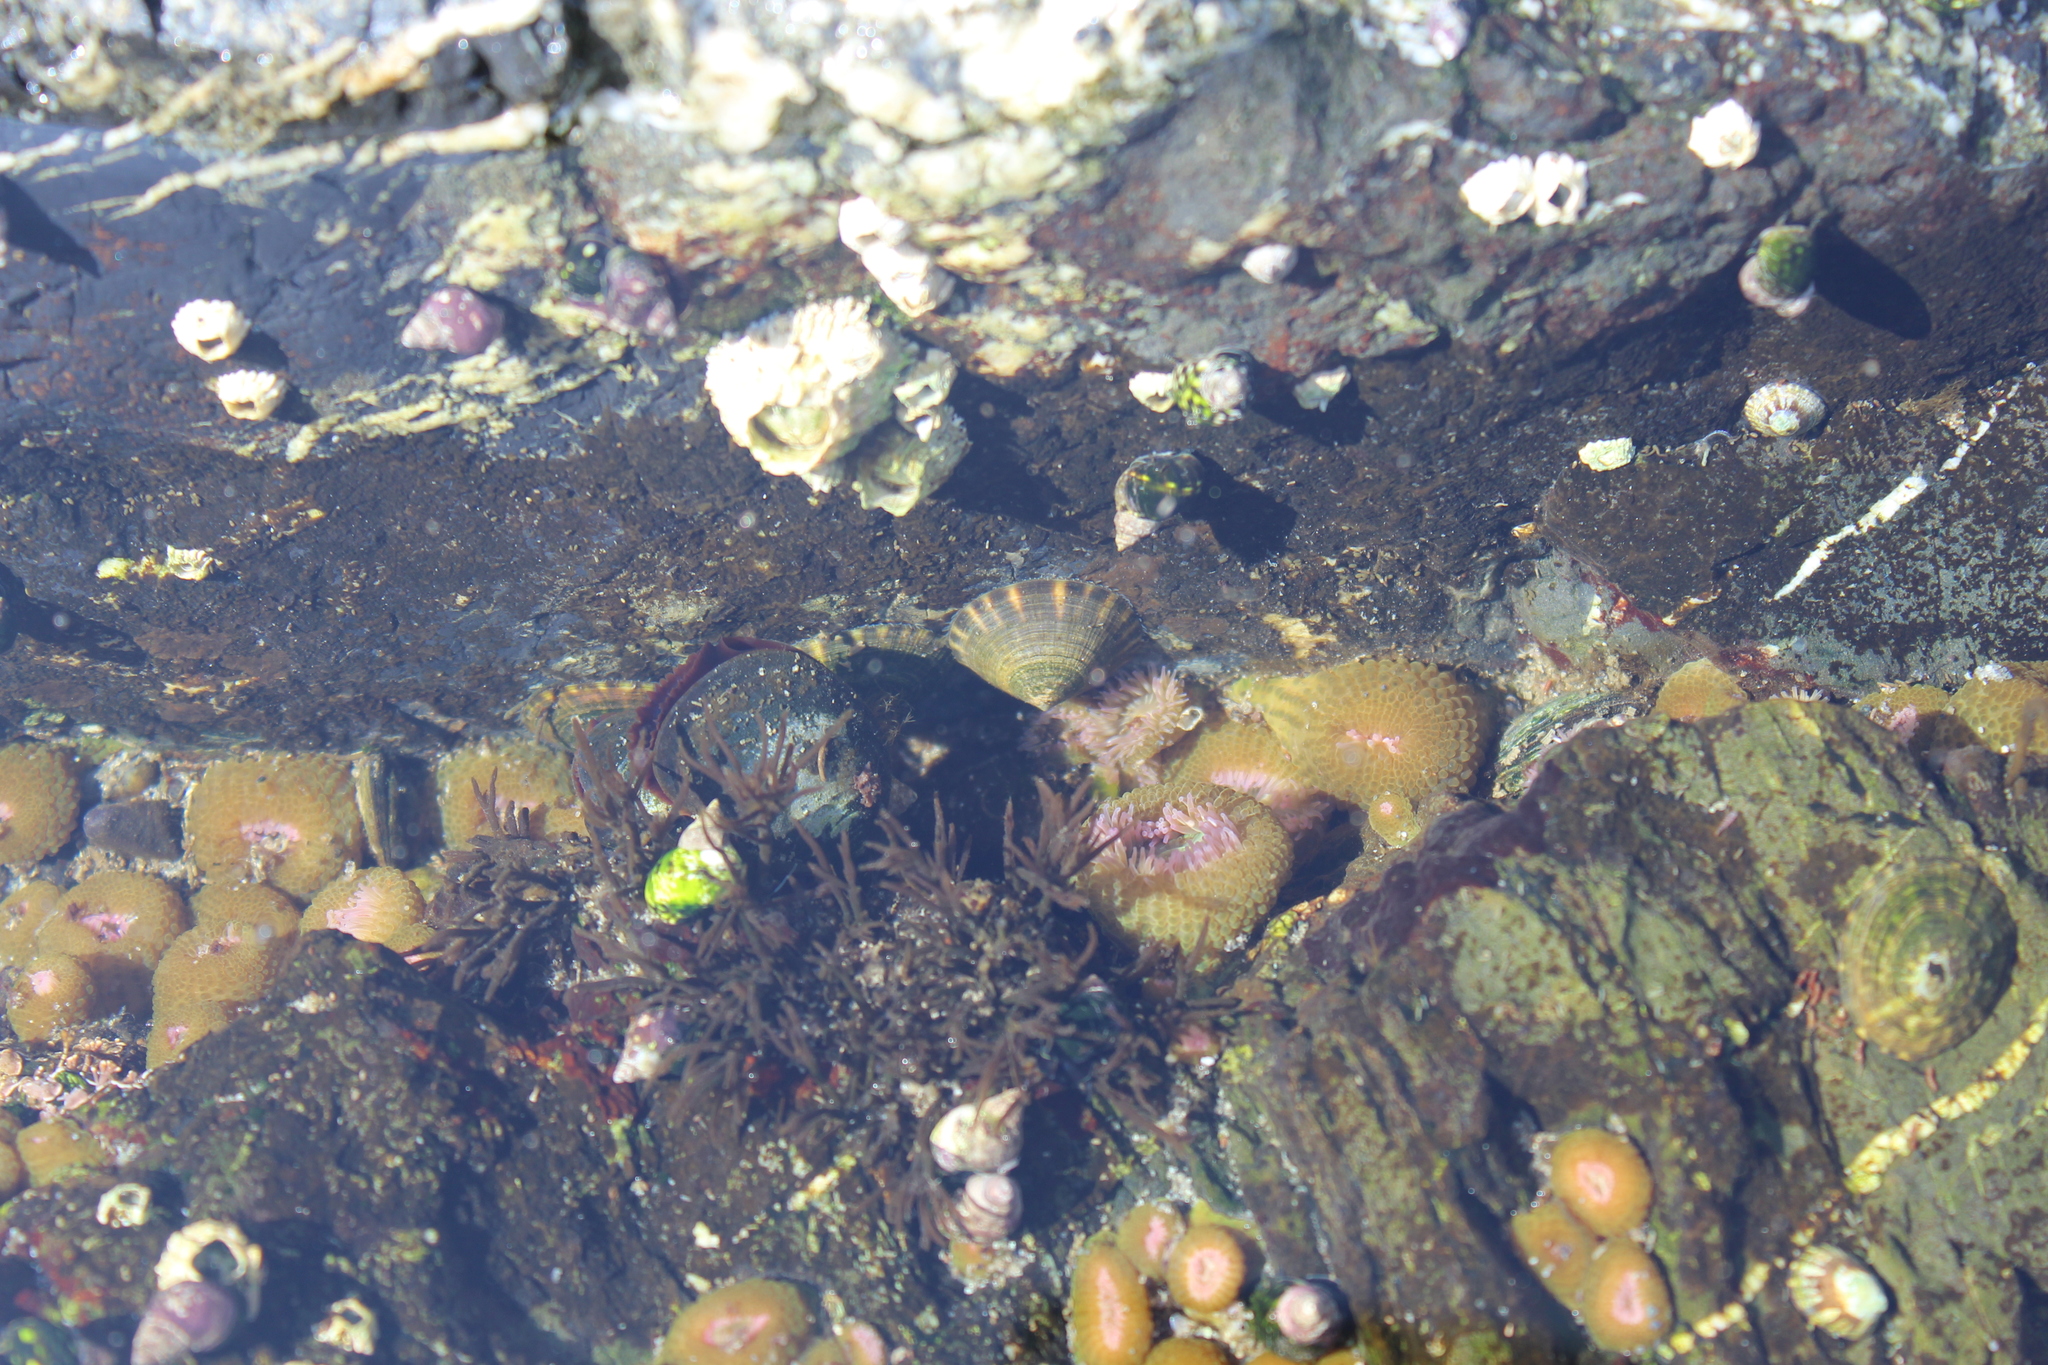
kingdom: Animalia
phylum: Mollusca
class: Gastropoda
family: Lottiidae
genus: Lottia
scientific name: Lottia pelta
